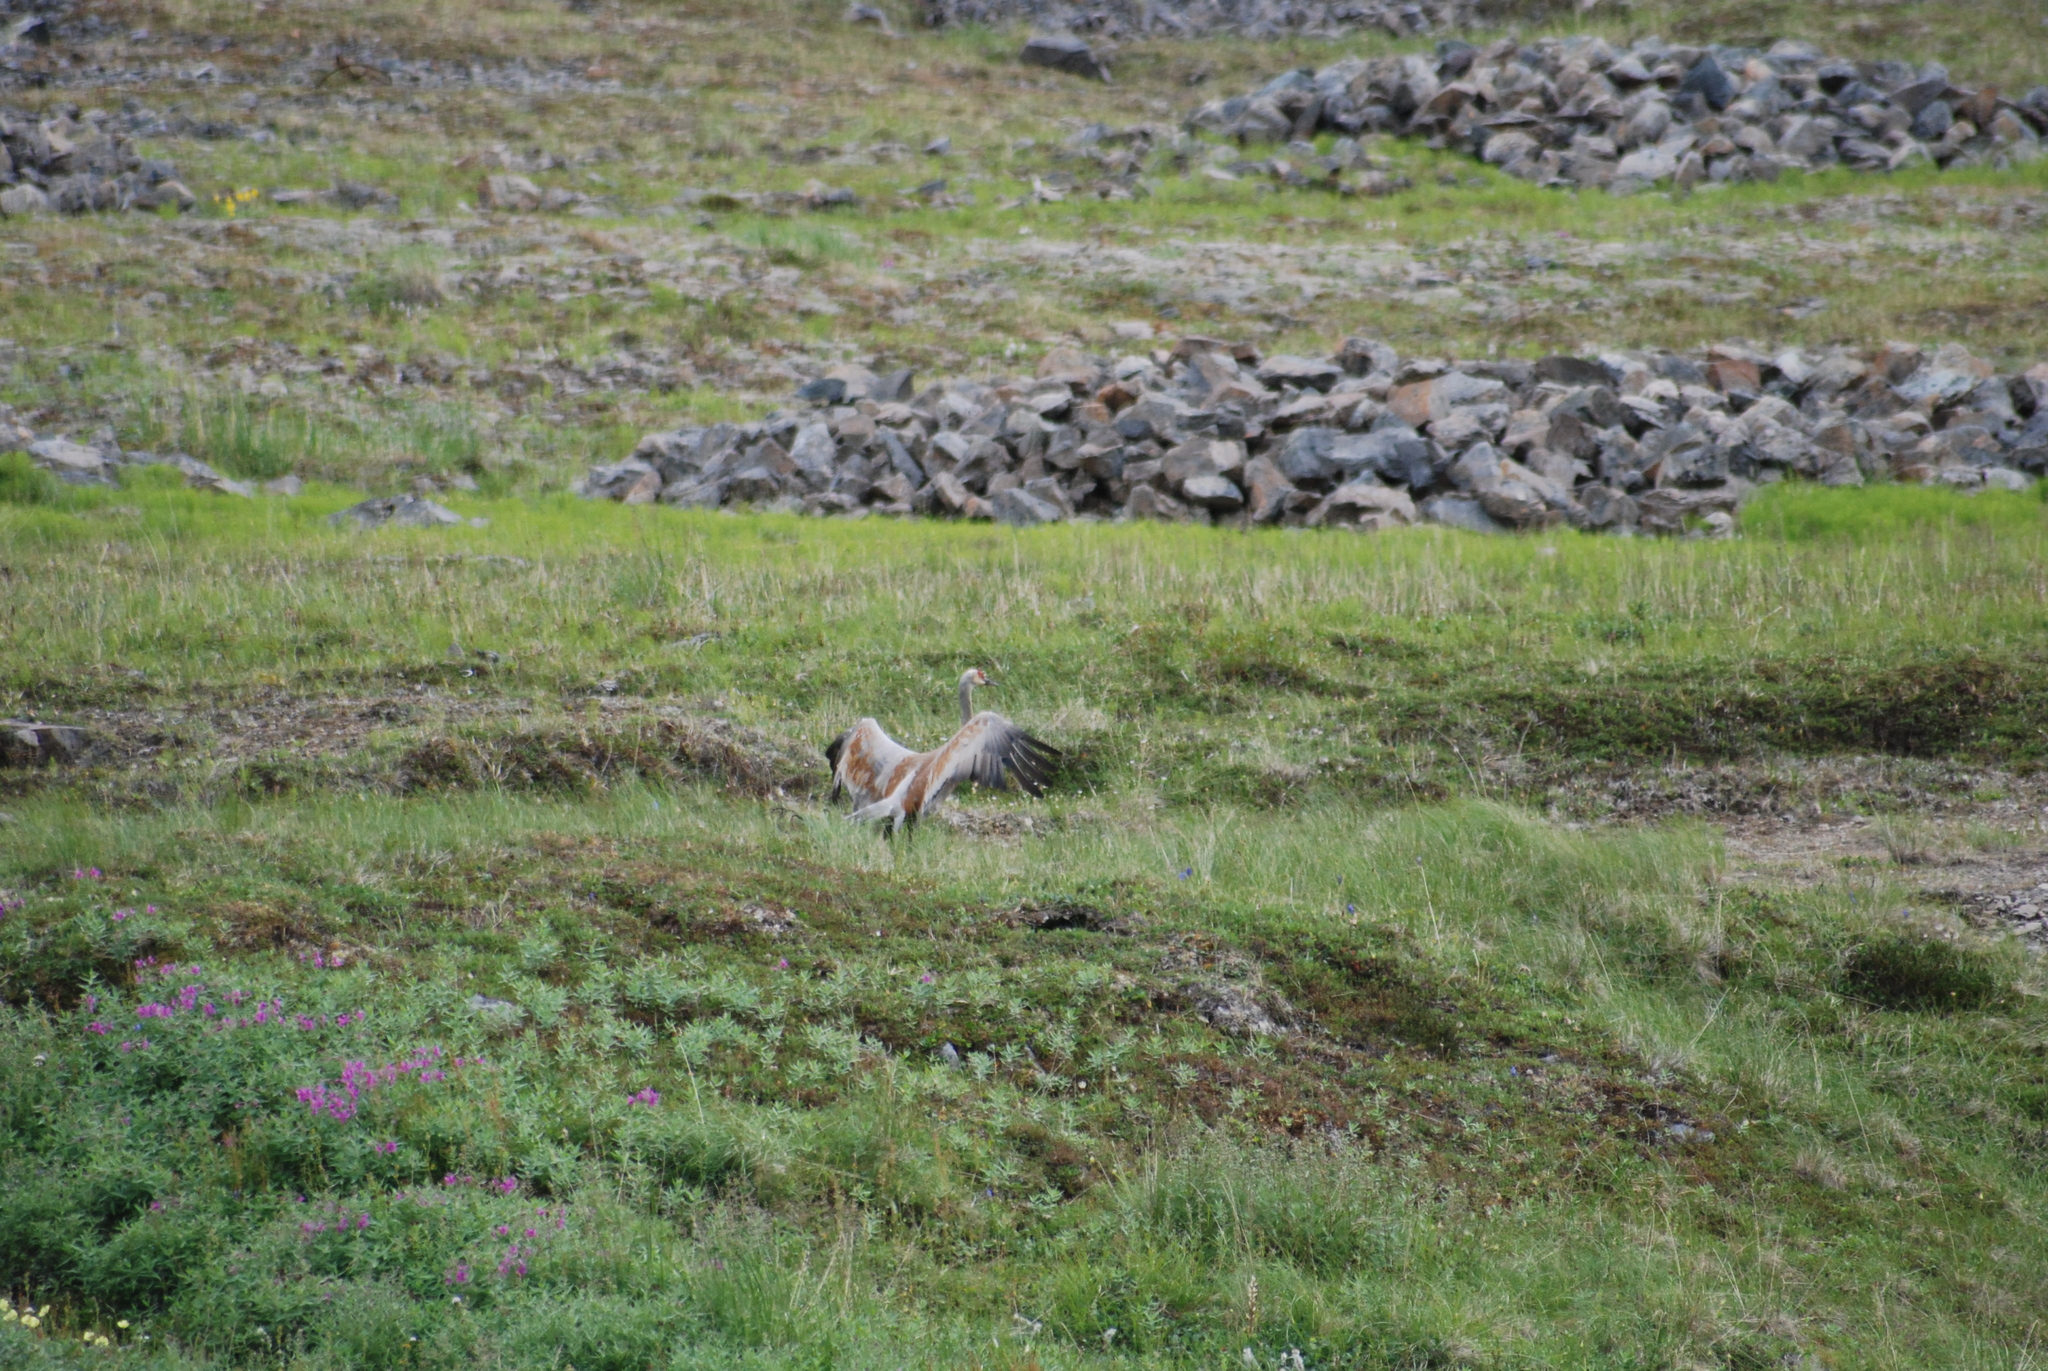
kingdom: Animalia
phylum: Chordata
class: Aves
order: Gruiformes
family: Gruidae
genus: Grus
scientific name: Grus canadensis
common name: Sandhill crane
